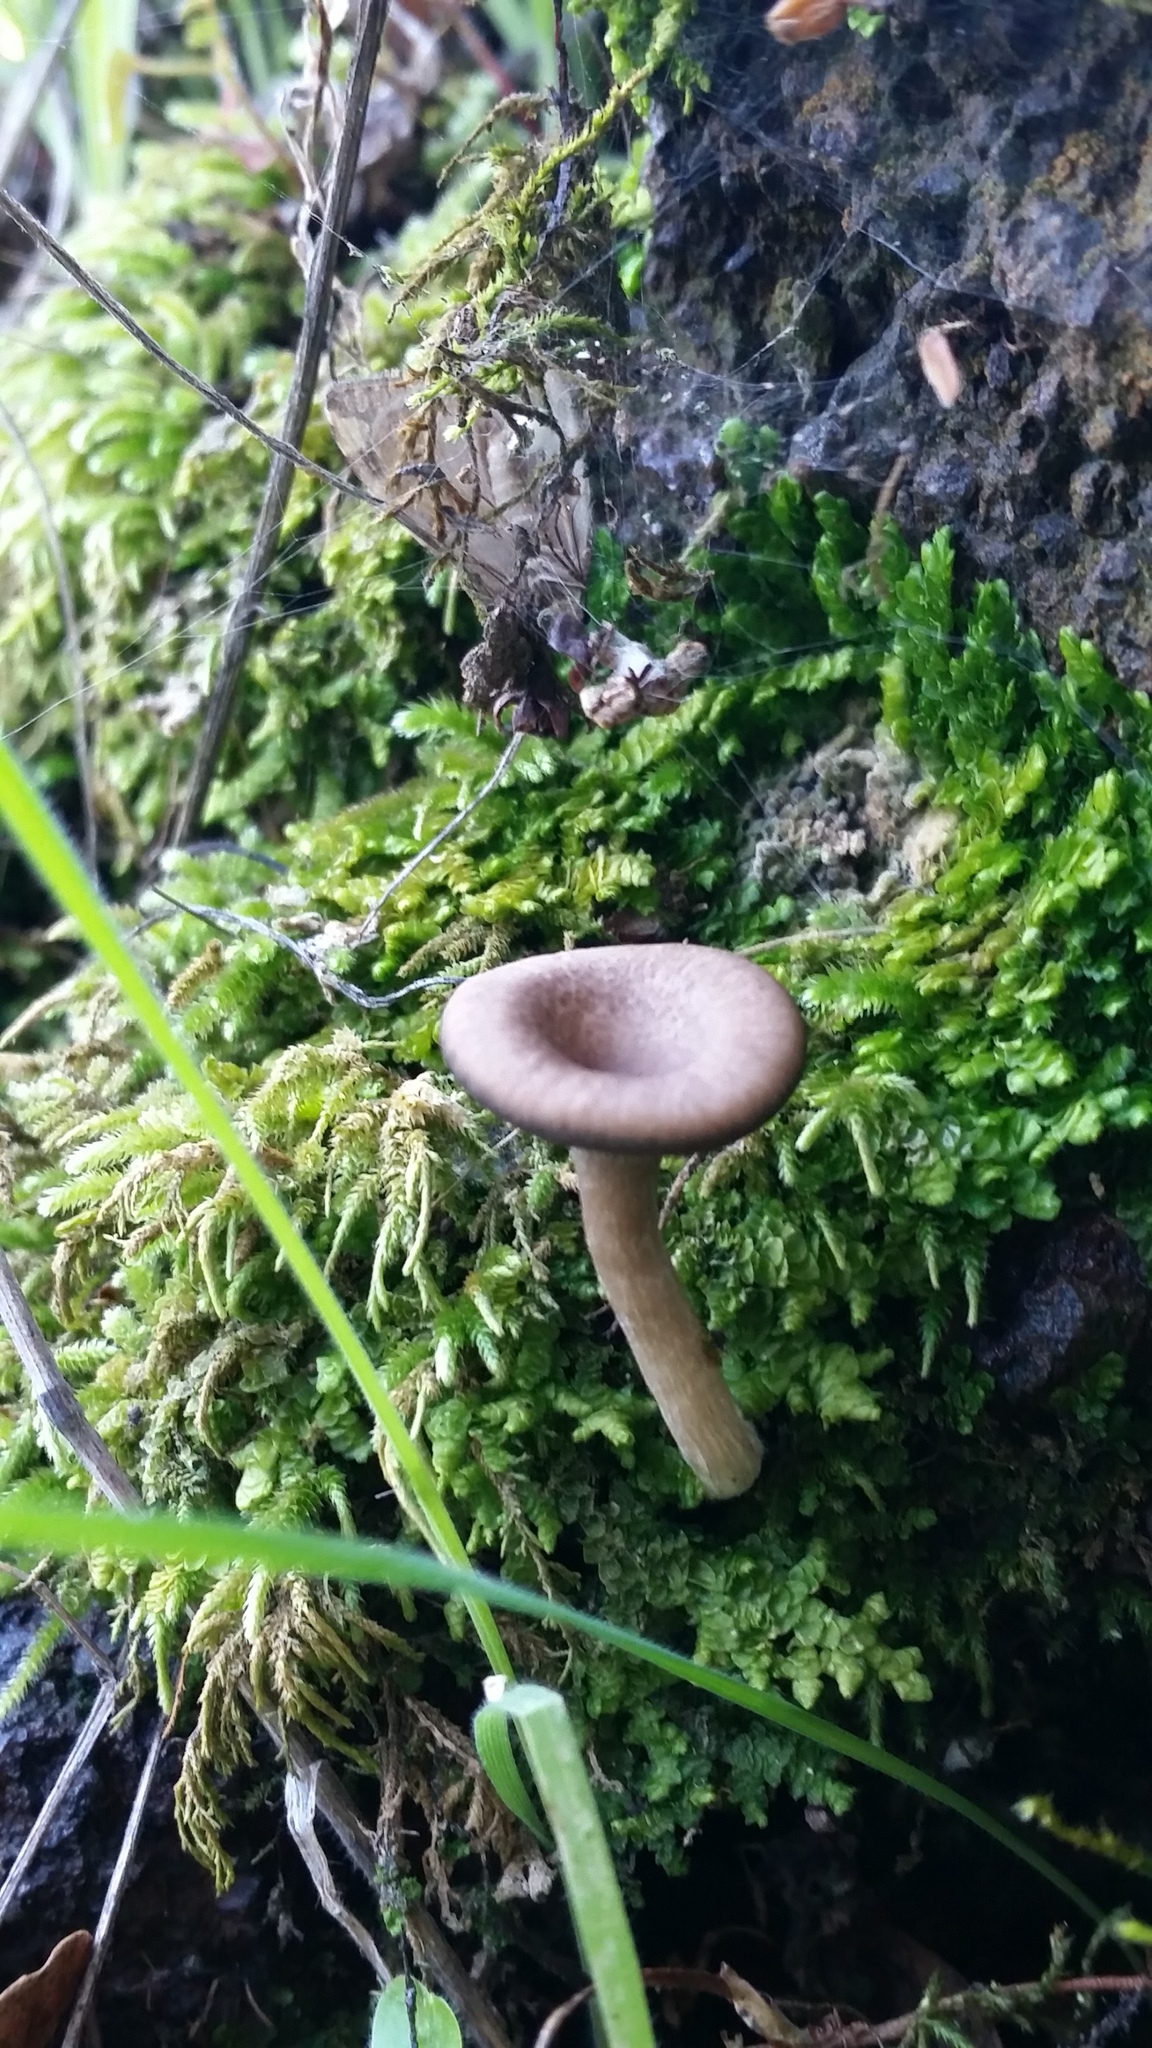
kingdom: Fungi
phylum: Basidiomycota
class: Agaricomycetes
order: Agaricales
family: Pseudoclitocybaceae
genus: Pseudoclitocybe
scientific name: Pseudoclitocybe cyathiformis
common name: Goblet
